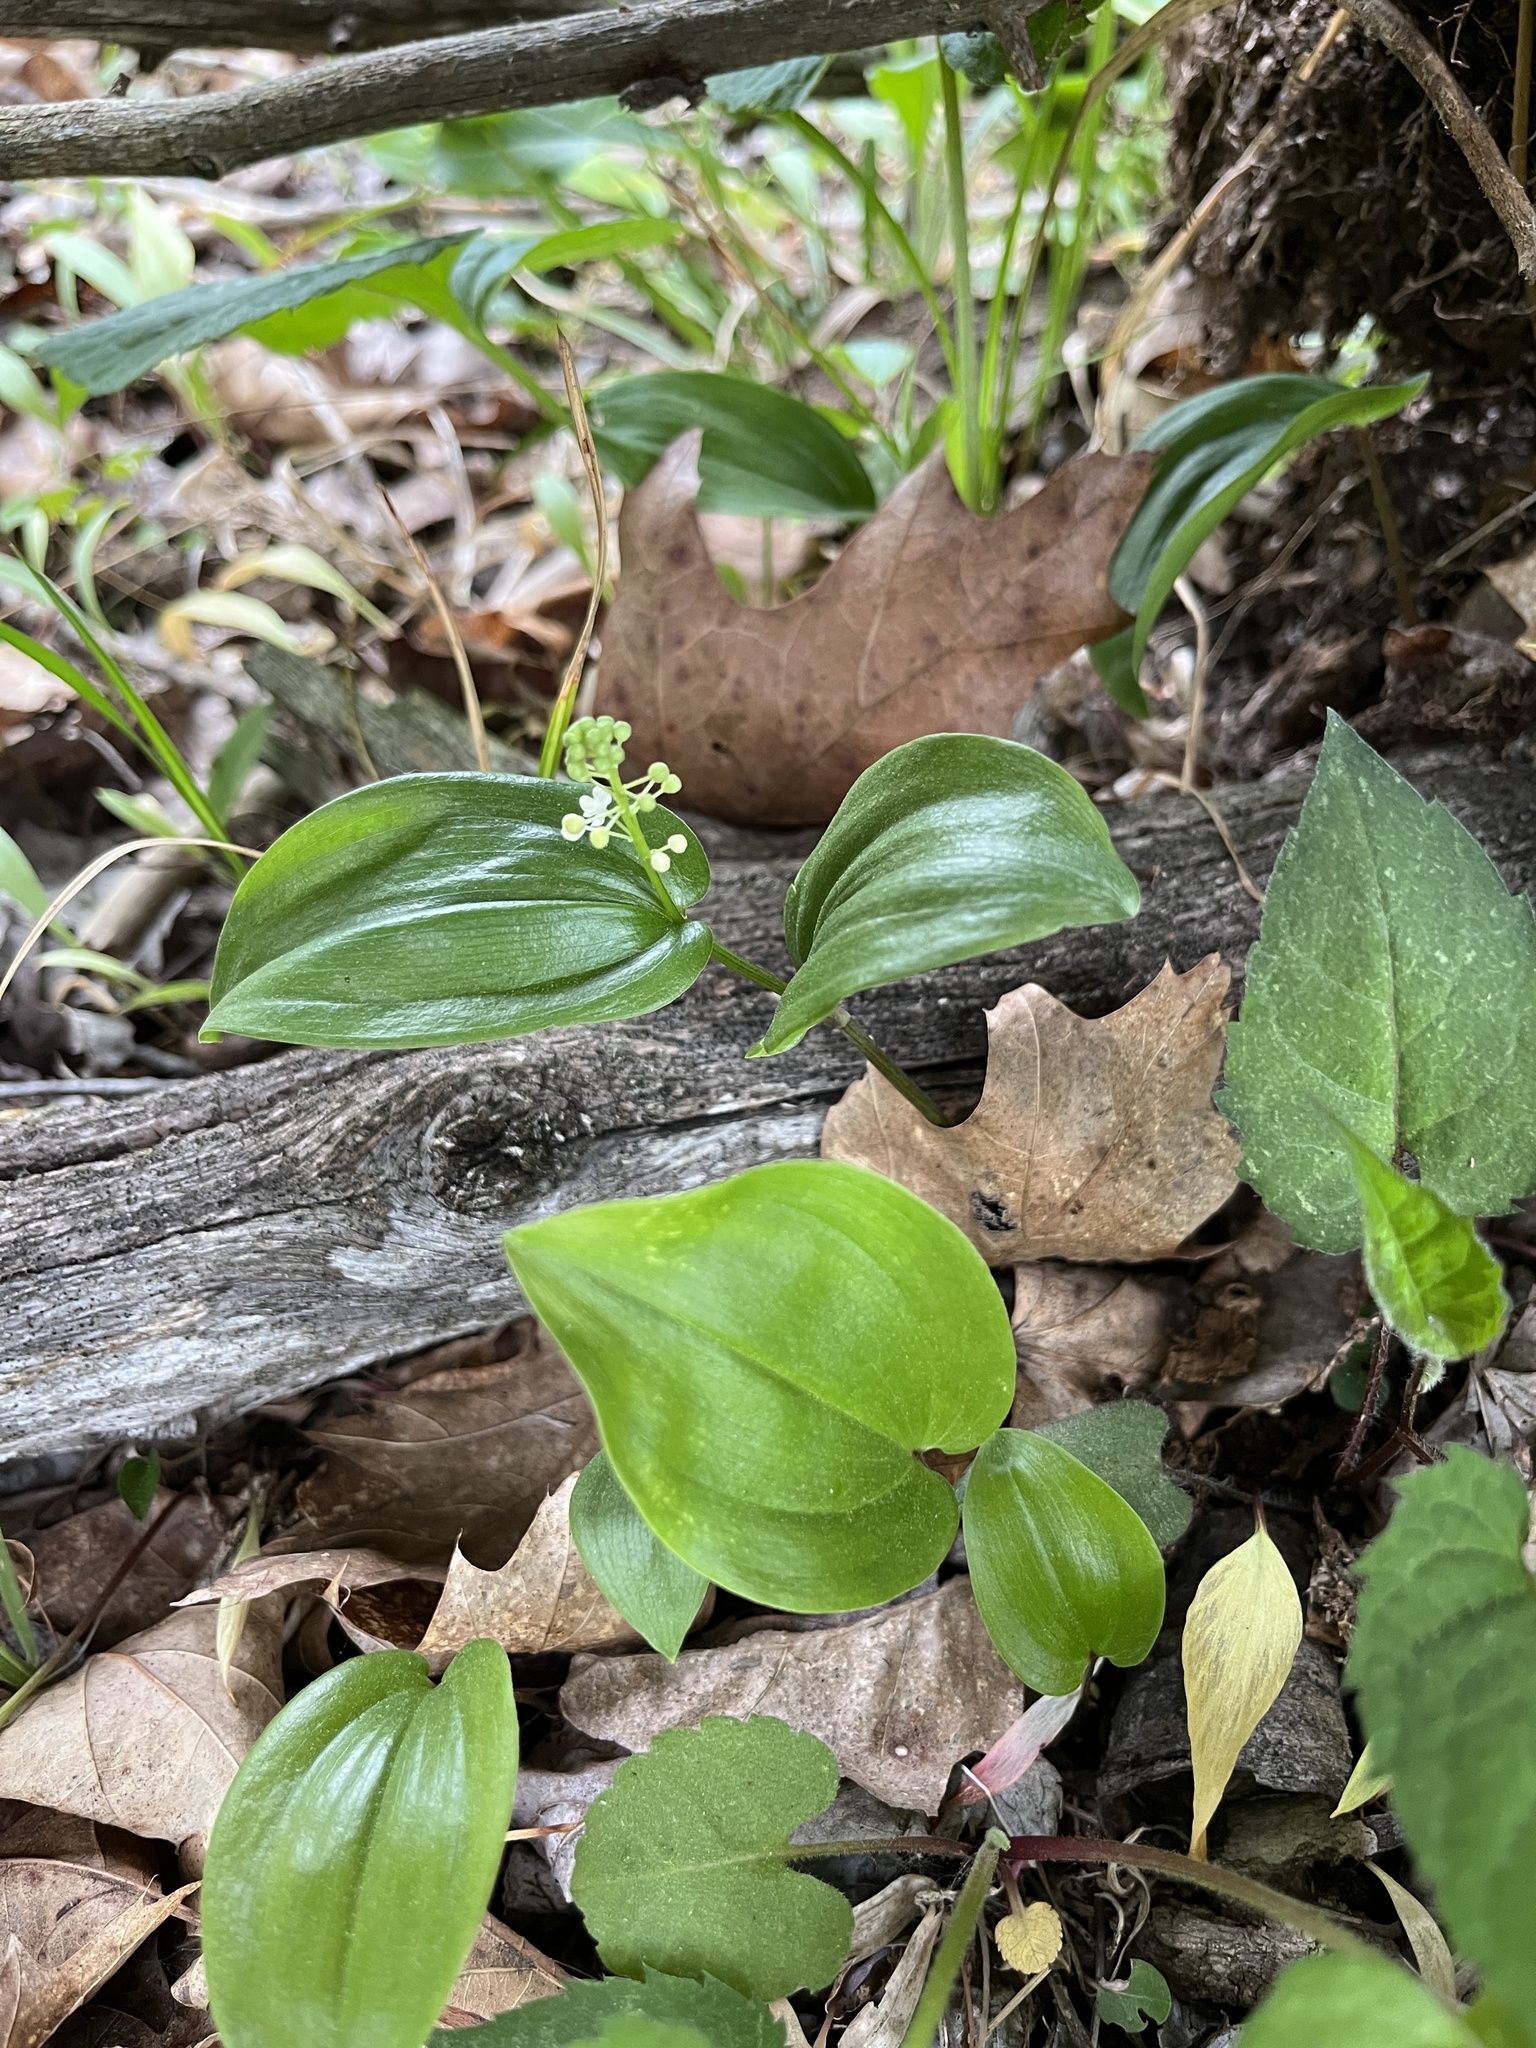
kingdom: Plantae
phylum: Tracheophyta
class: Liliopsida
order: Asparagales
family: Asparagaceae
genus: Maianthemum
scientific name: Maianthemum canadense
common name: False lily-of-the-valley
